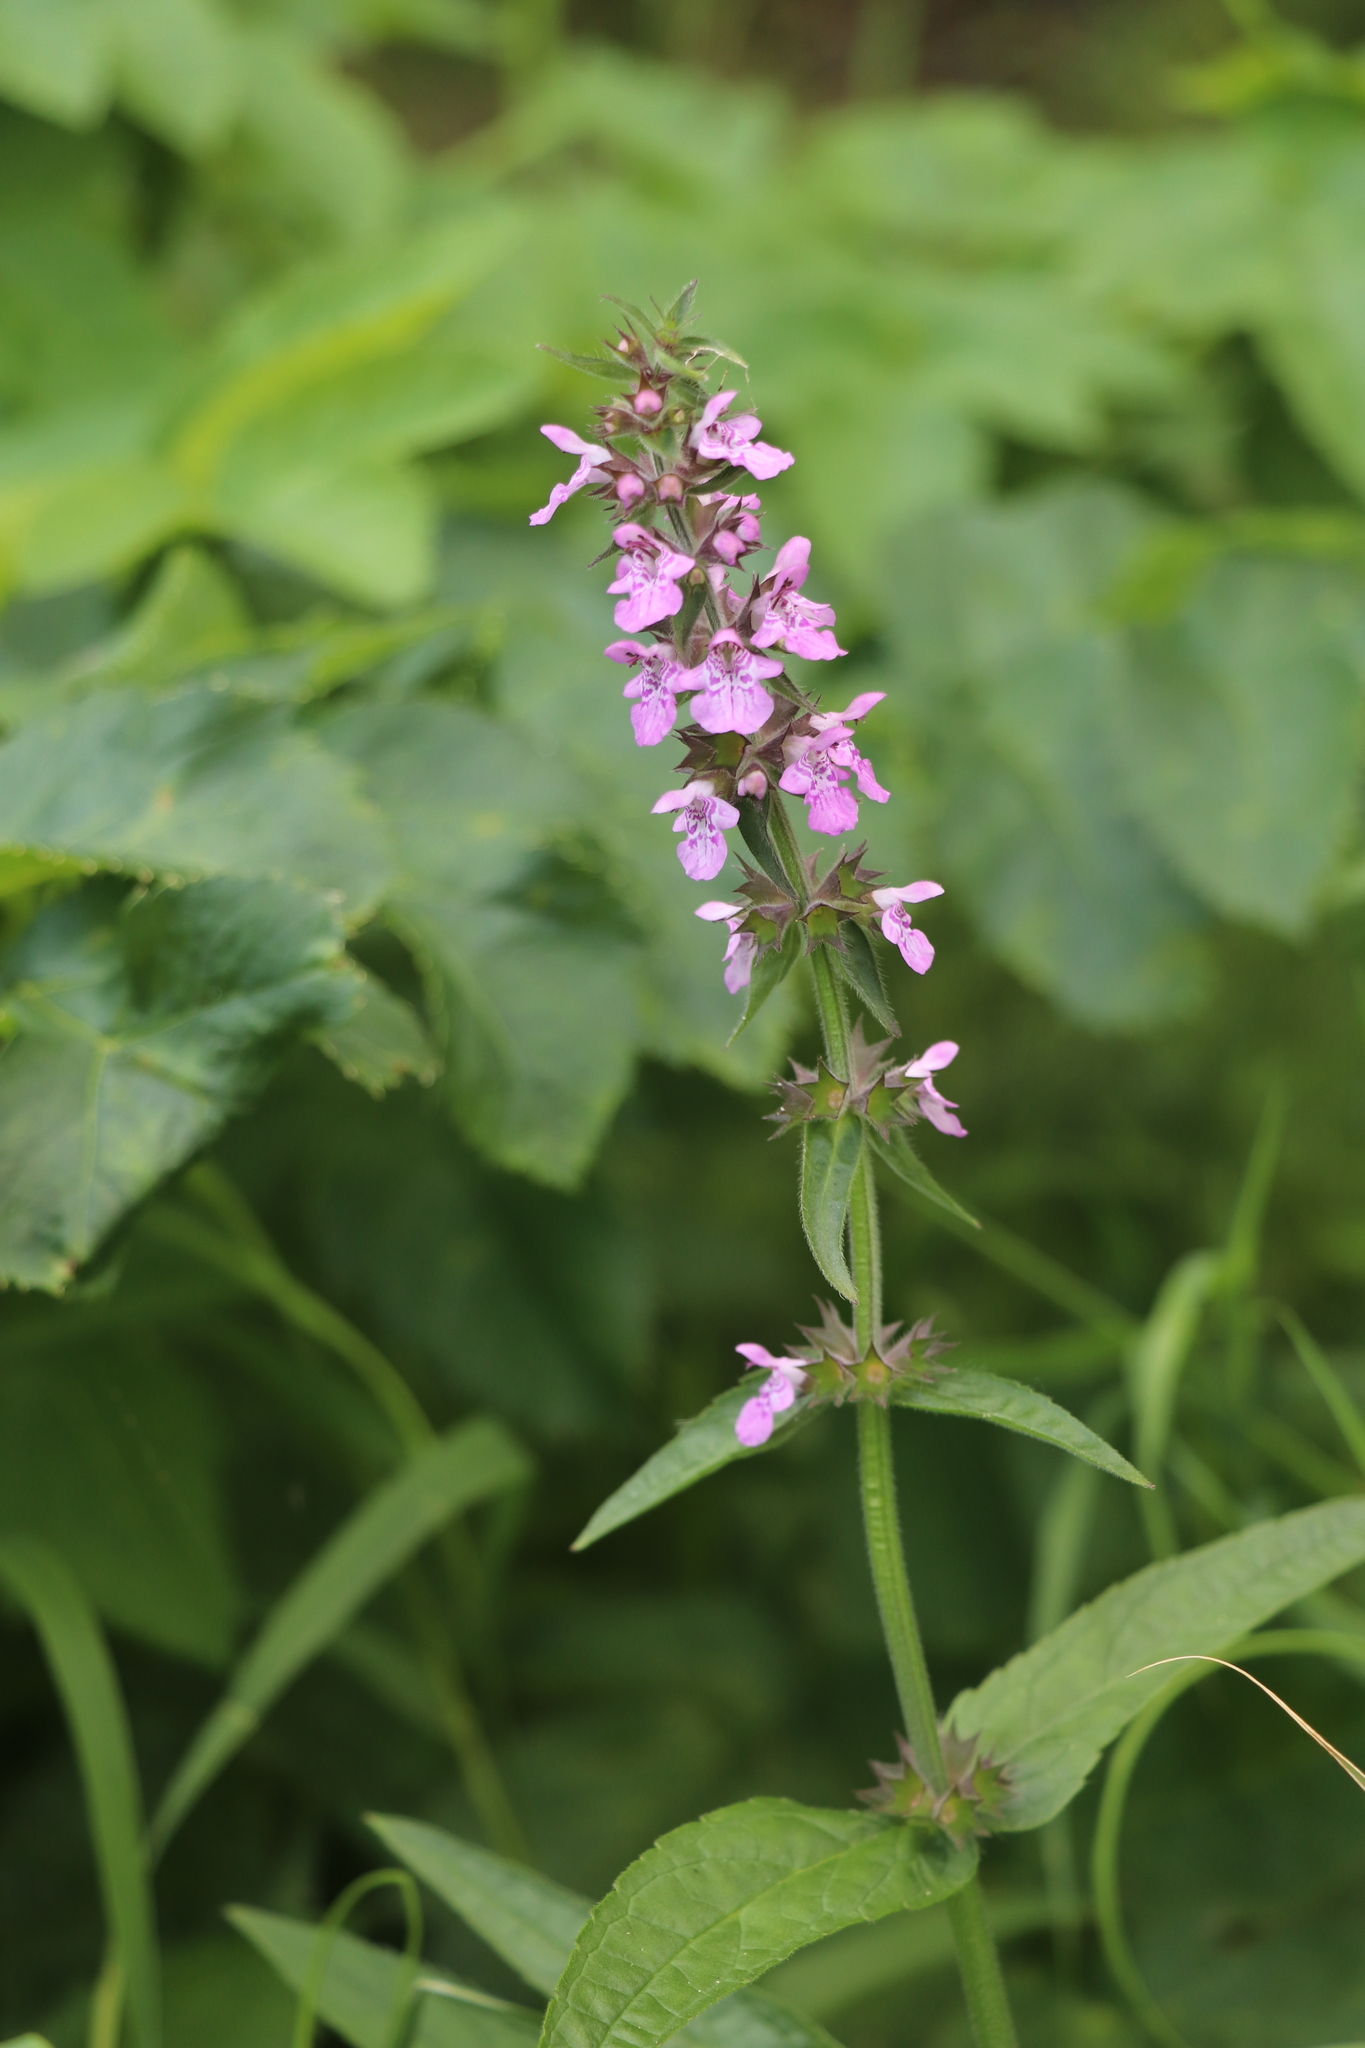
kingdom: Plantae
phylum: Tracheophyta
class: Magnoliopsida
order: Lamiales
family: Lamiaceae
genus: Stachys
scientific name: Stachys palustris
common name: Marsh woundwort
